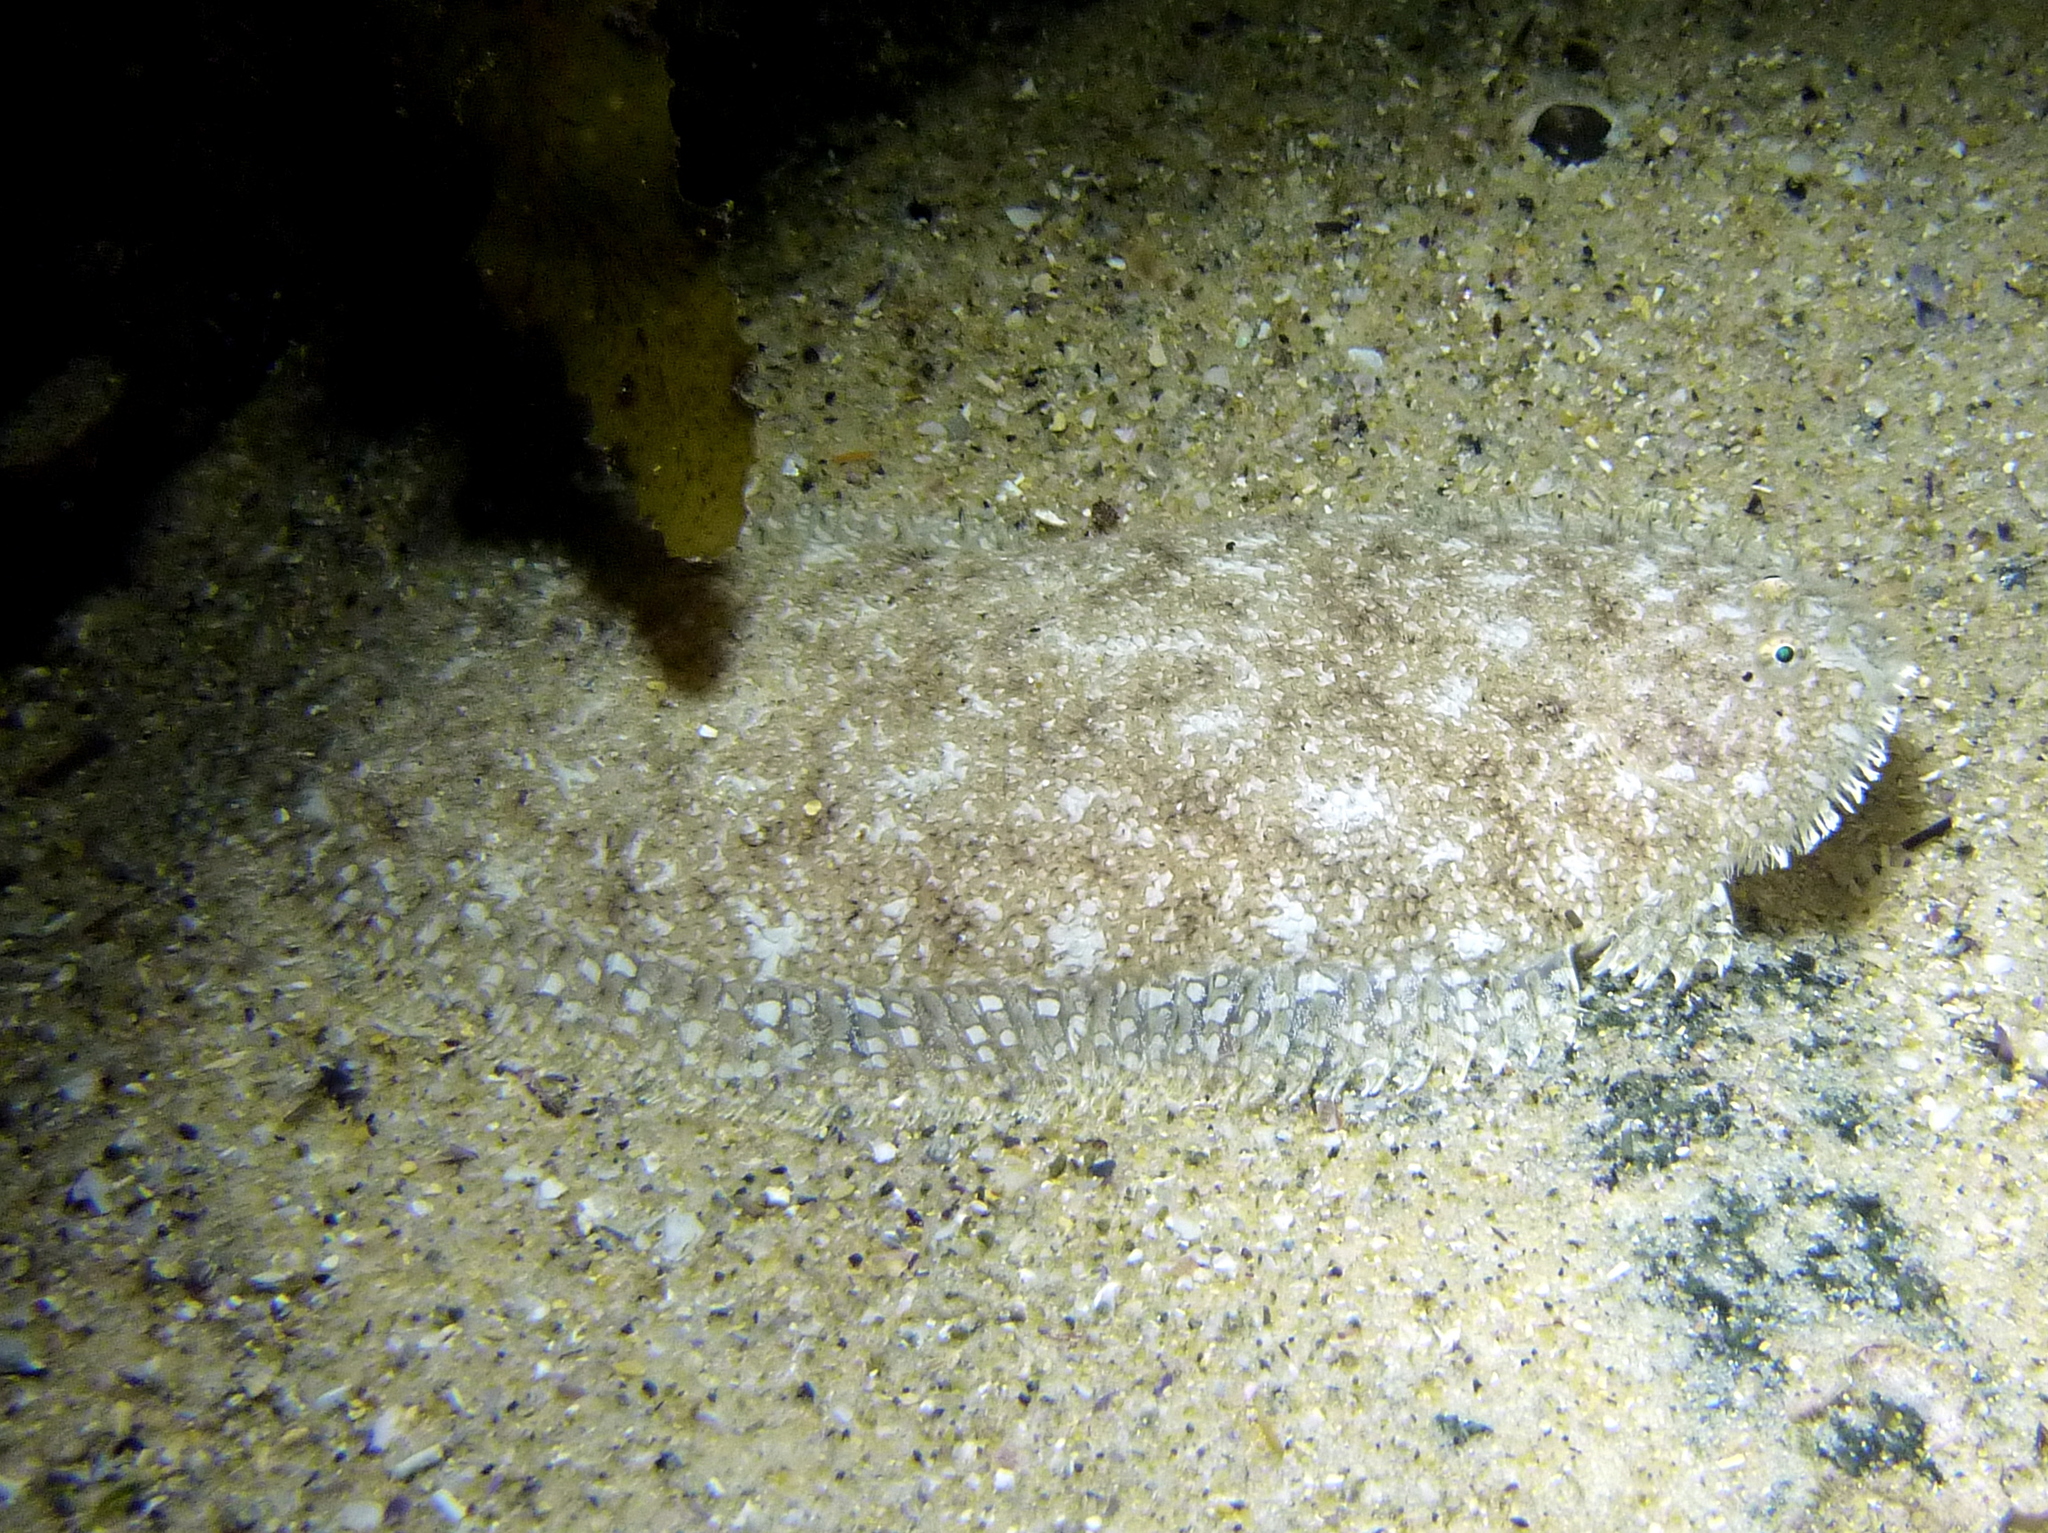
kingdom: Animalia
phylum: Chordata
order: Pleuronectiformes
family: Soleidae
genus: Aseraggodes
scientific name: Aseraggodes lenisquamis
